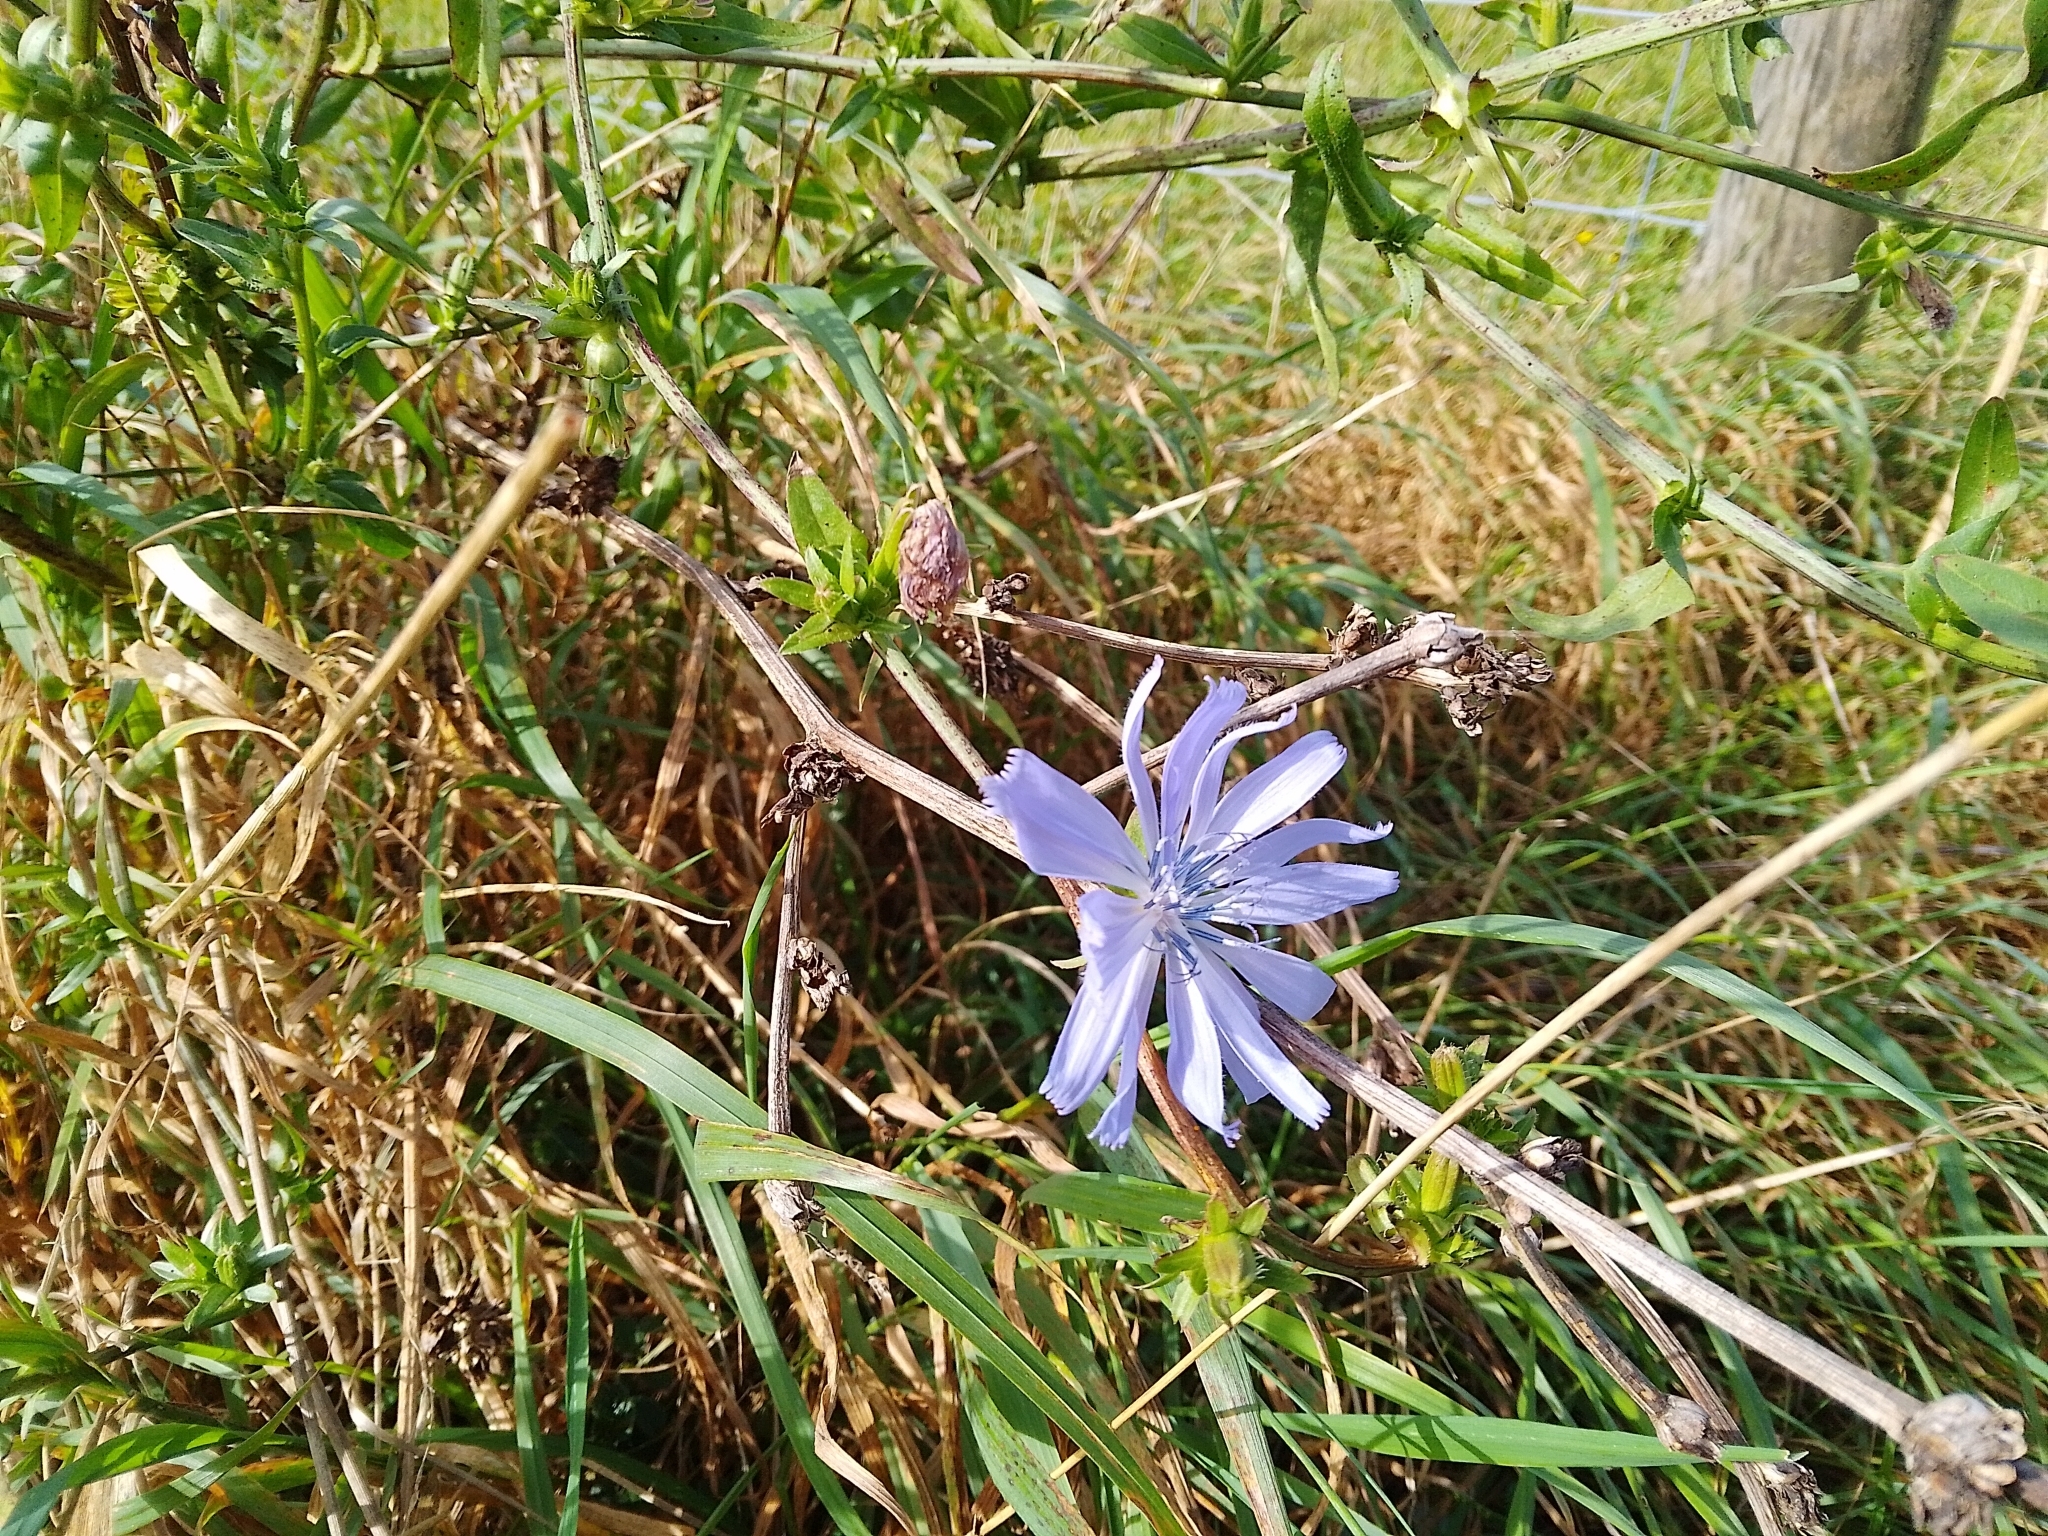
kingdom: Plantae
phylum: Tracheophyta
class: Magnoliopsida
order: Asterales
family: Asteraceae
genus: Cichorium
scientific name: Cichorium intybus
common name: Chicory
